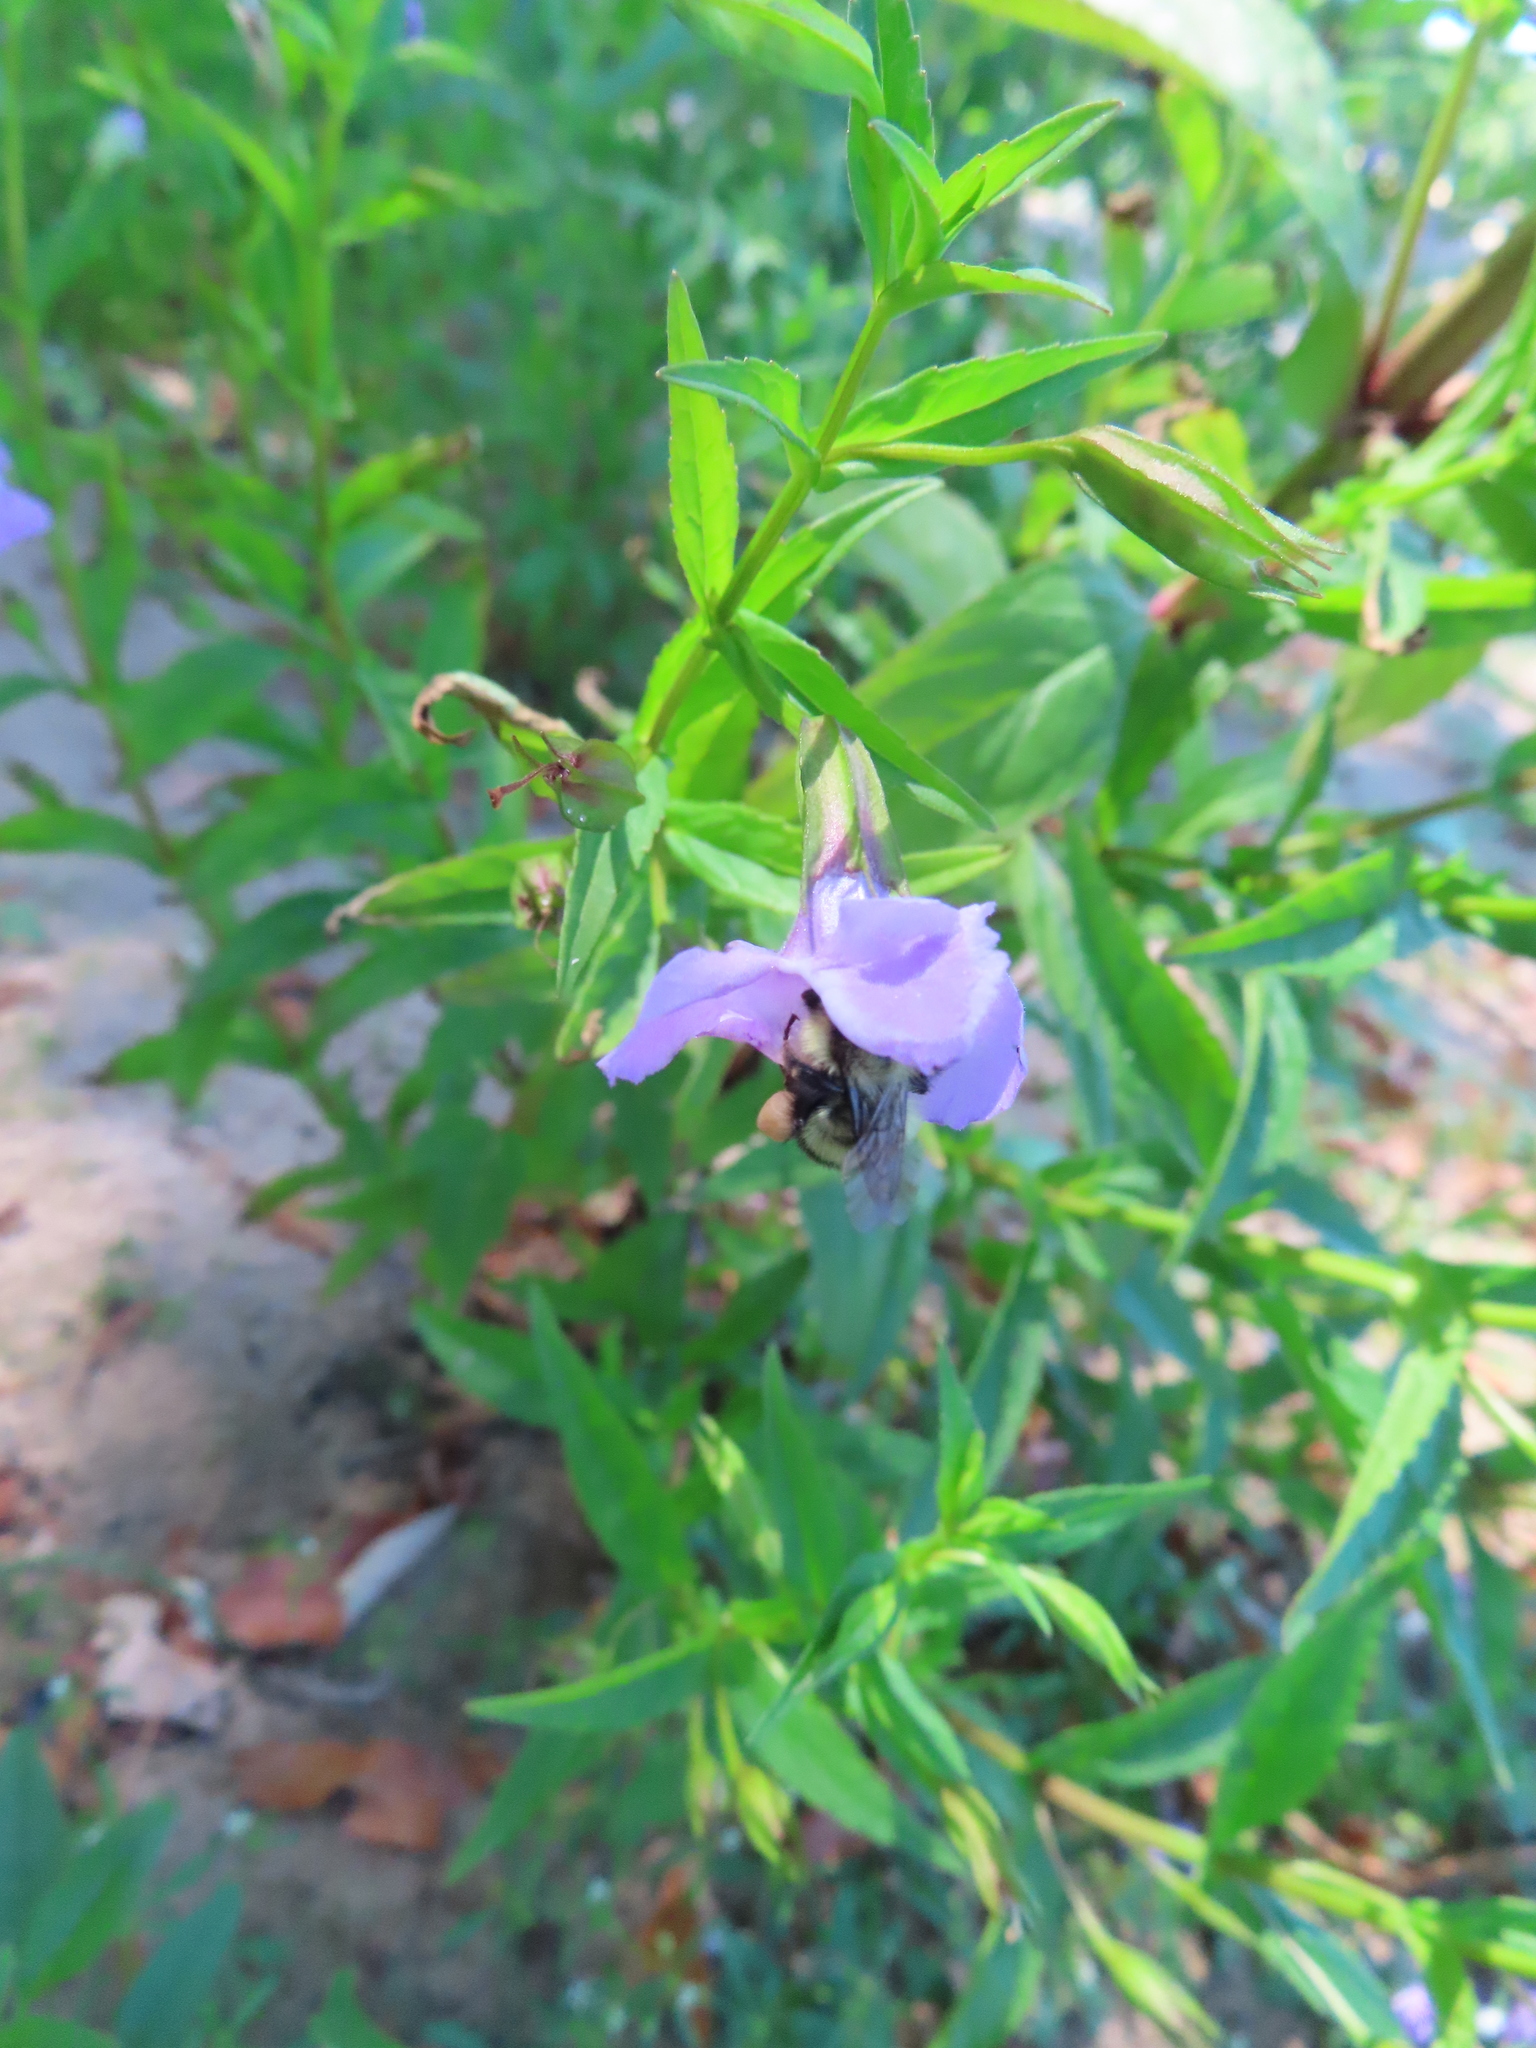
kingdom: Animalia
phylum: Arthropoda
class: Insecta
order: Hymenoptera
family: Apidae
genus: Bombus
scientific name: Bombus vagans
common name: Half-black bumble bee
